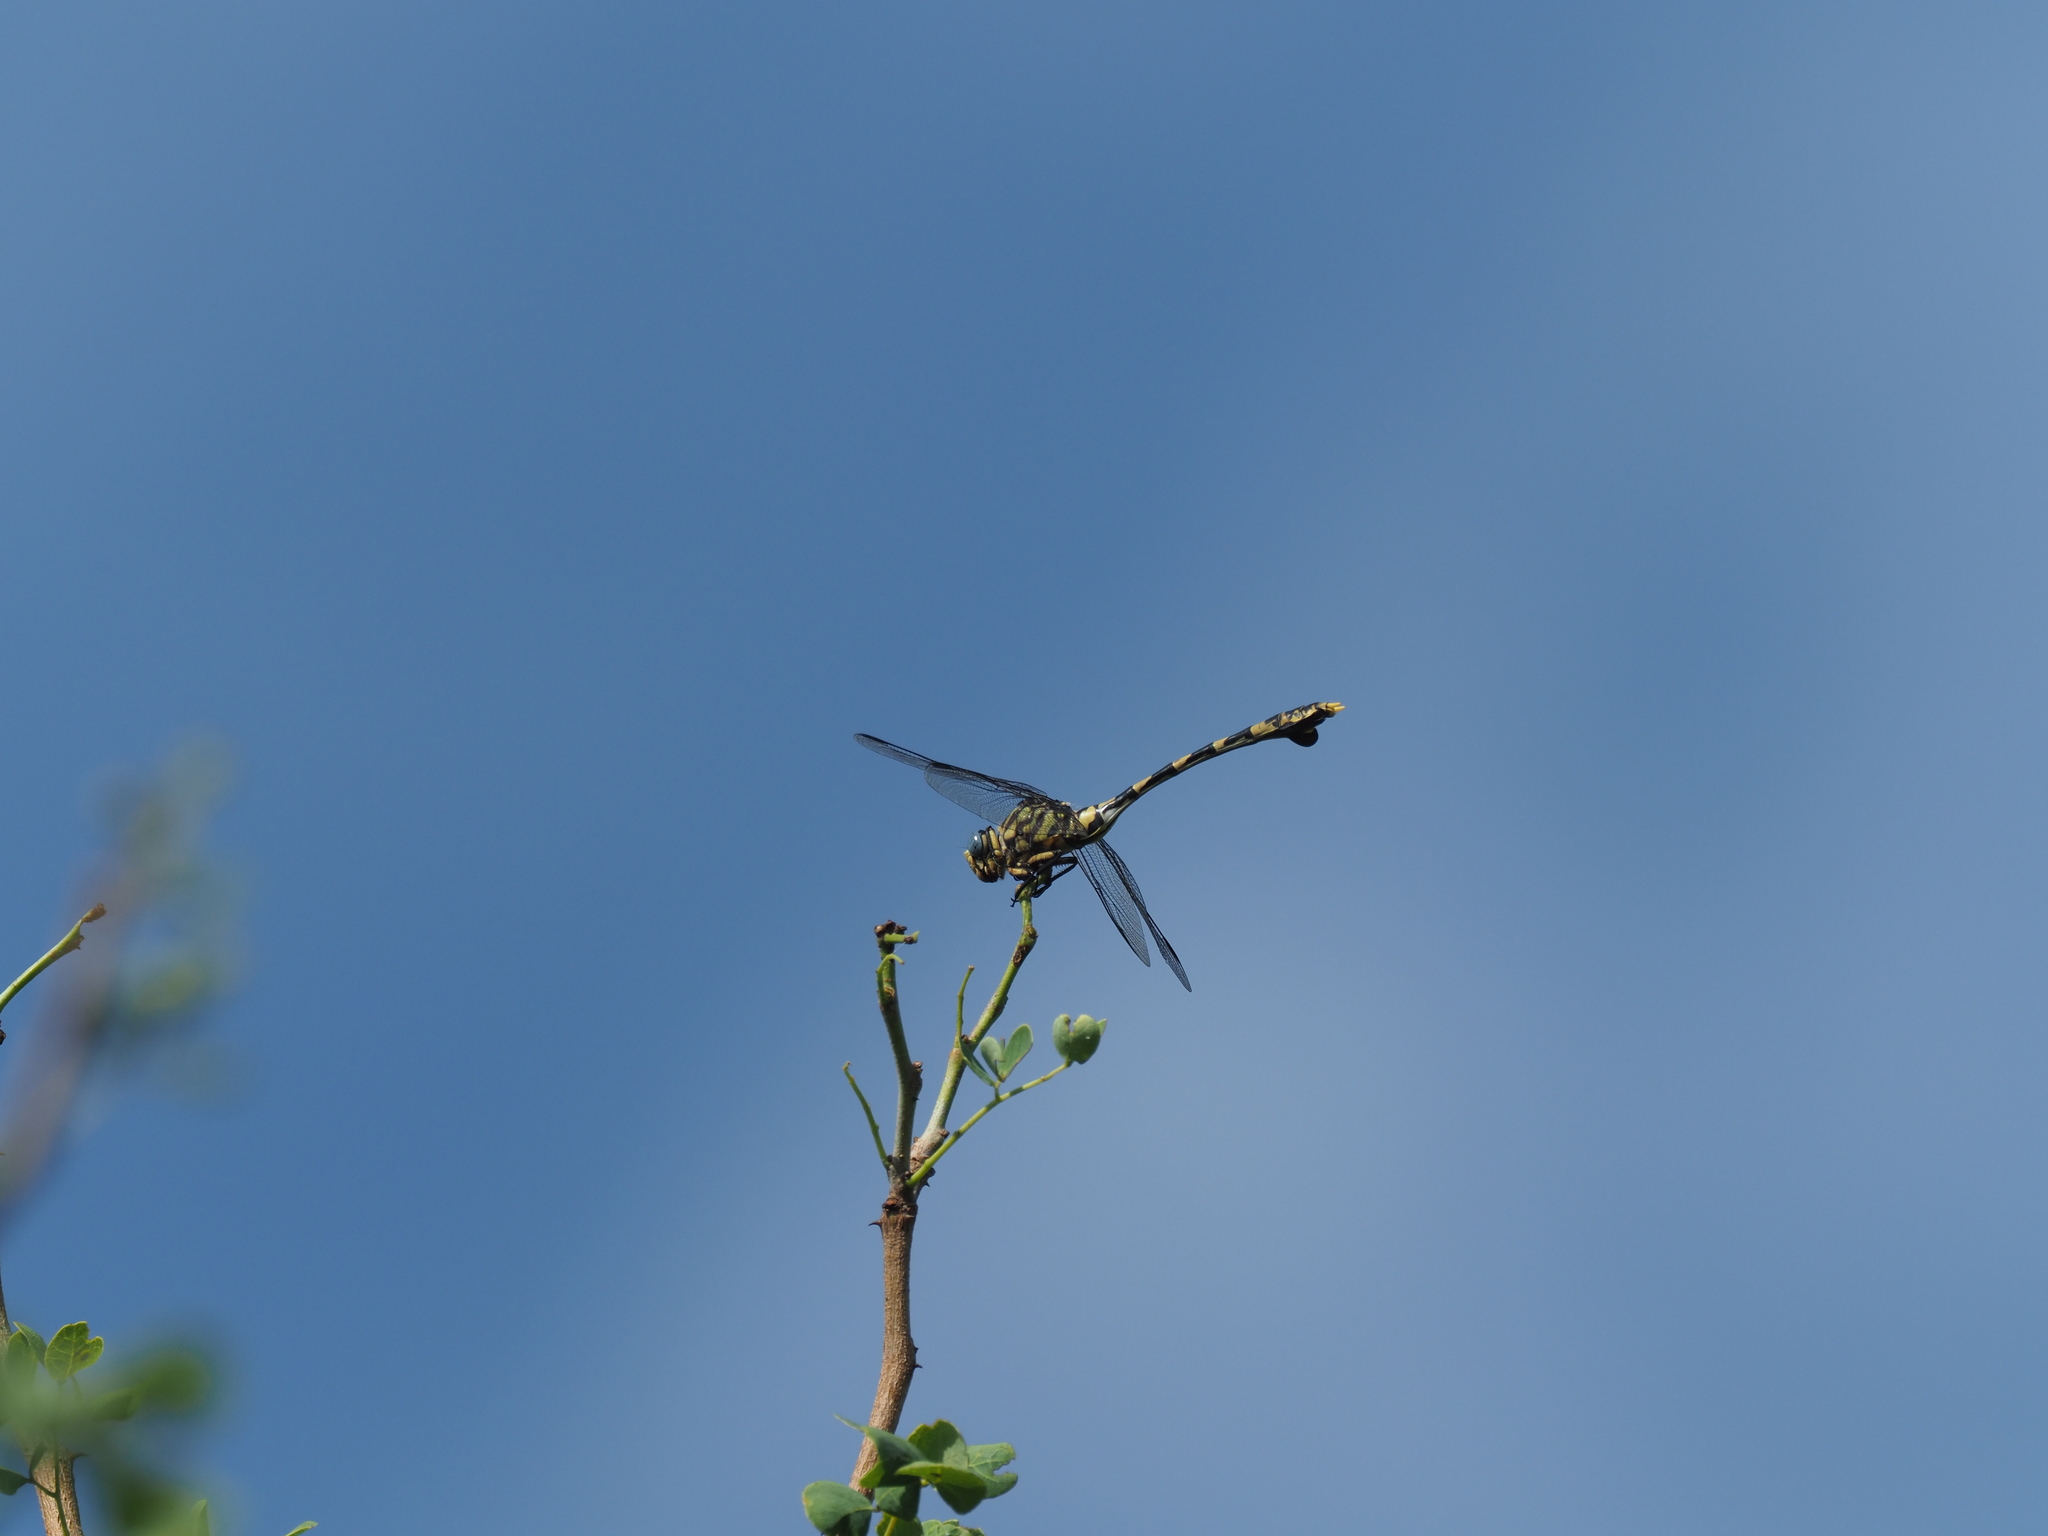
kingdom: Animalia
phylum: Arthropoda
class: Insecta
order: Odonata
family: Gomphidae
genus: Ictinogomphus
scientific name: Ictinogomphus ferox
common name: Common tiger
